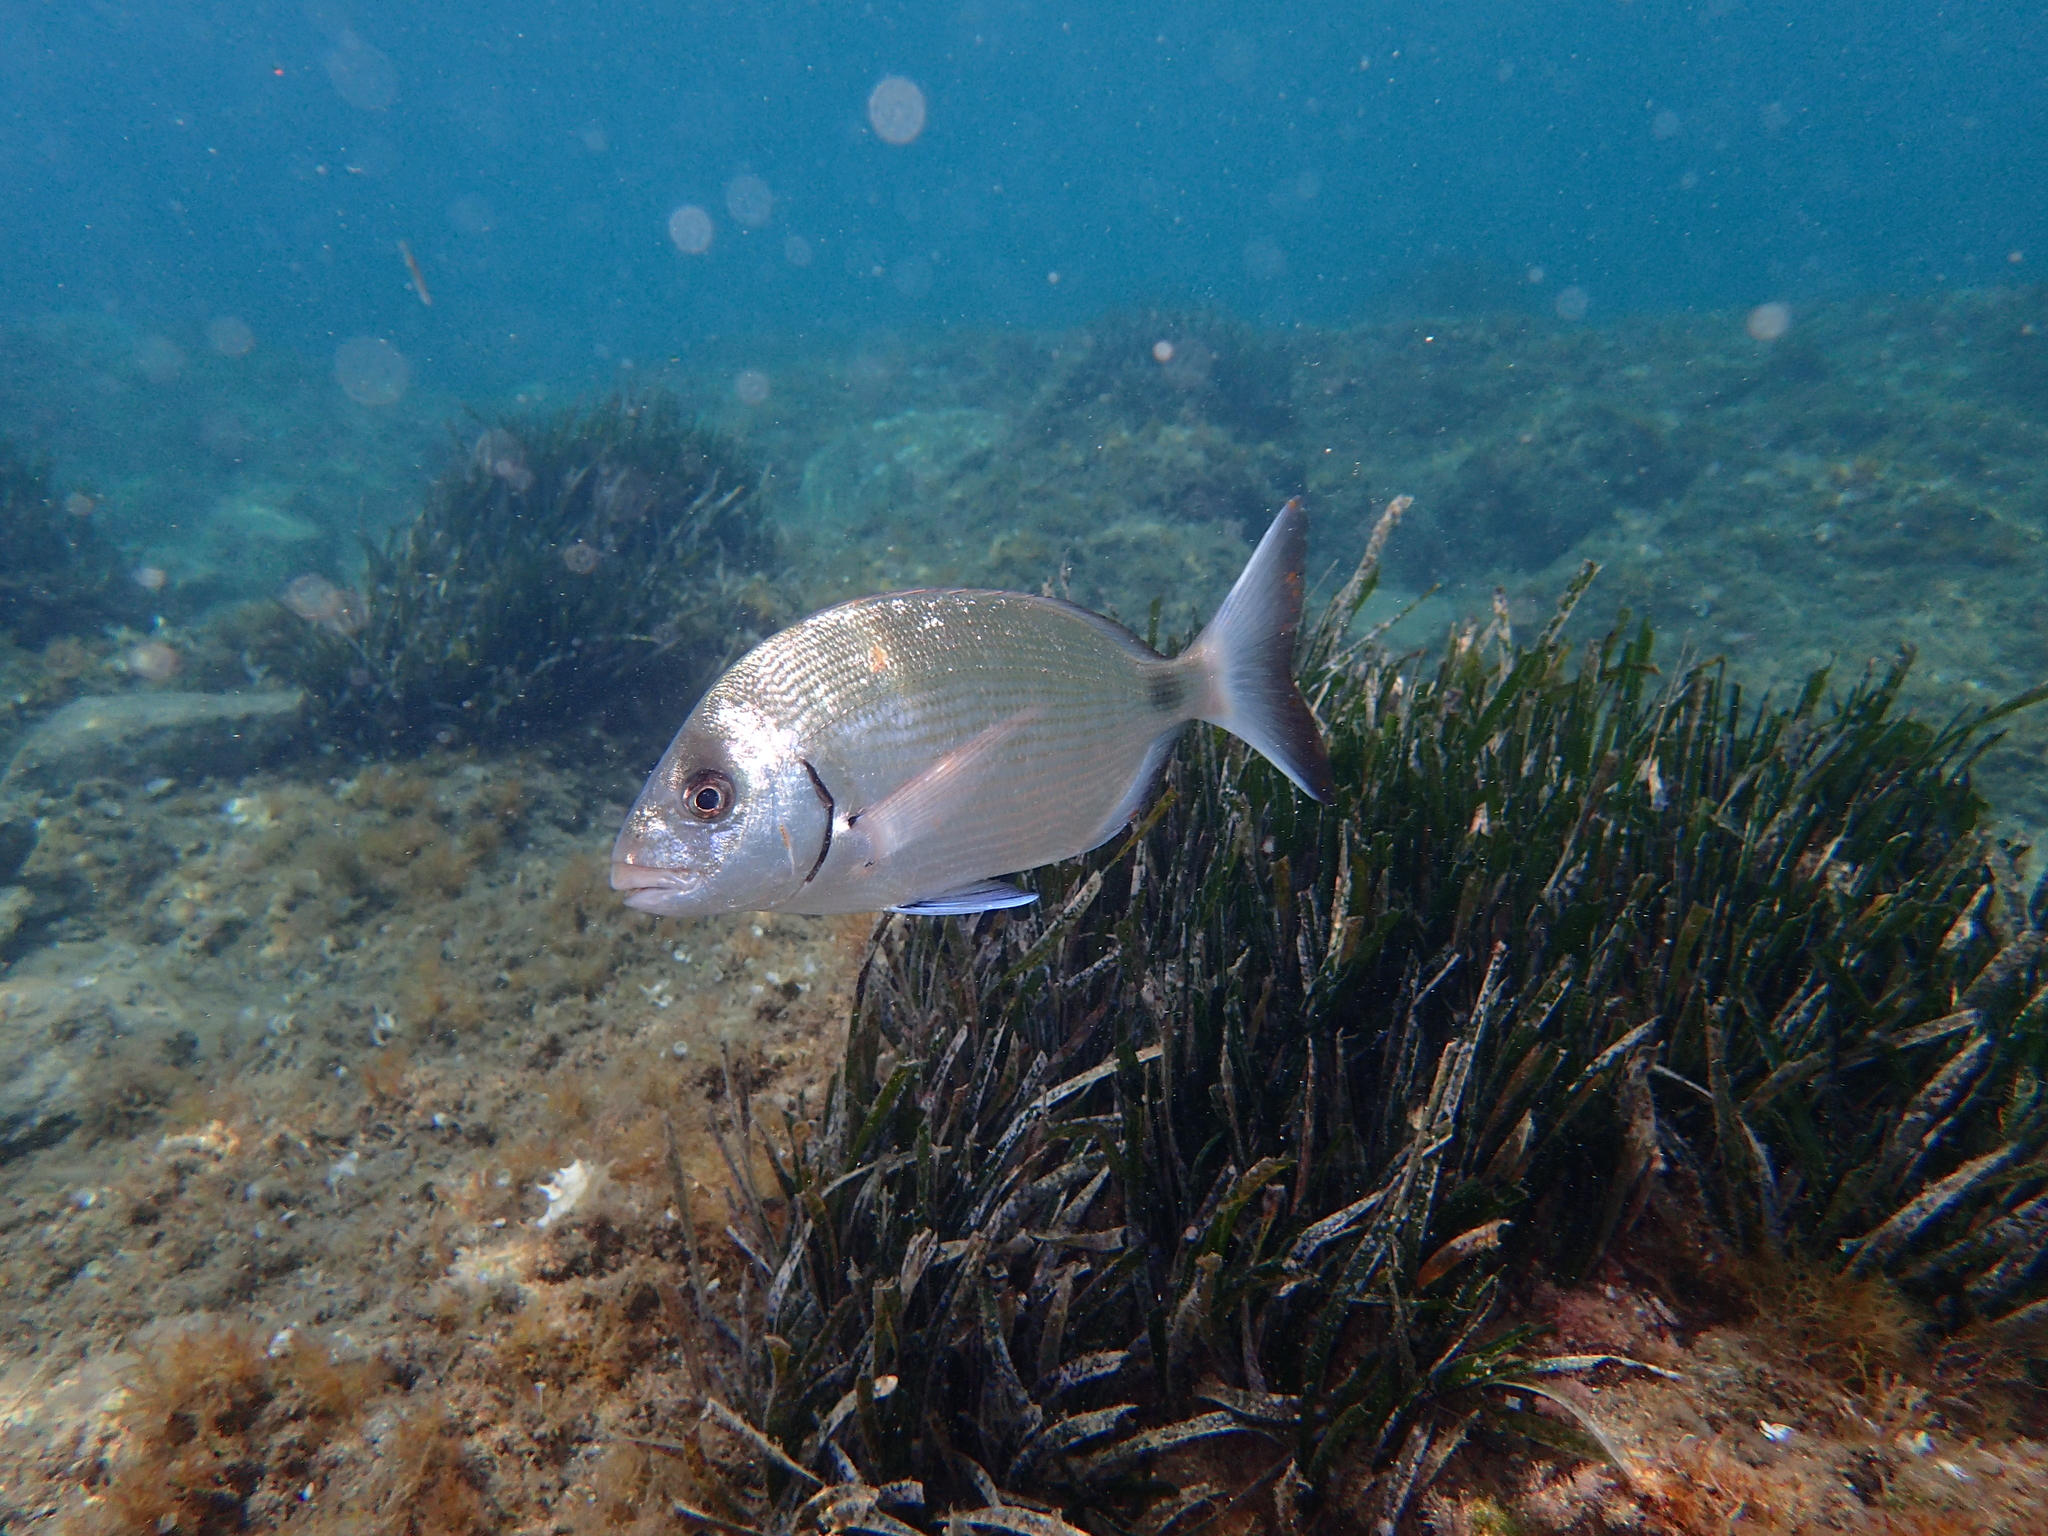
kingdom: Plantae
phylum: Tracheophyta
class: Liliopsida
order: Alismatales
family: Posidoniaceae
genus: Posidonia
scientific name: Posidonia oceanica
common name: Mediterranean tapeweed
